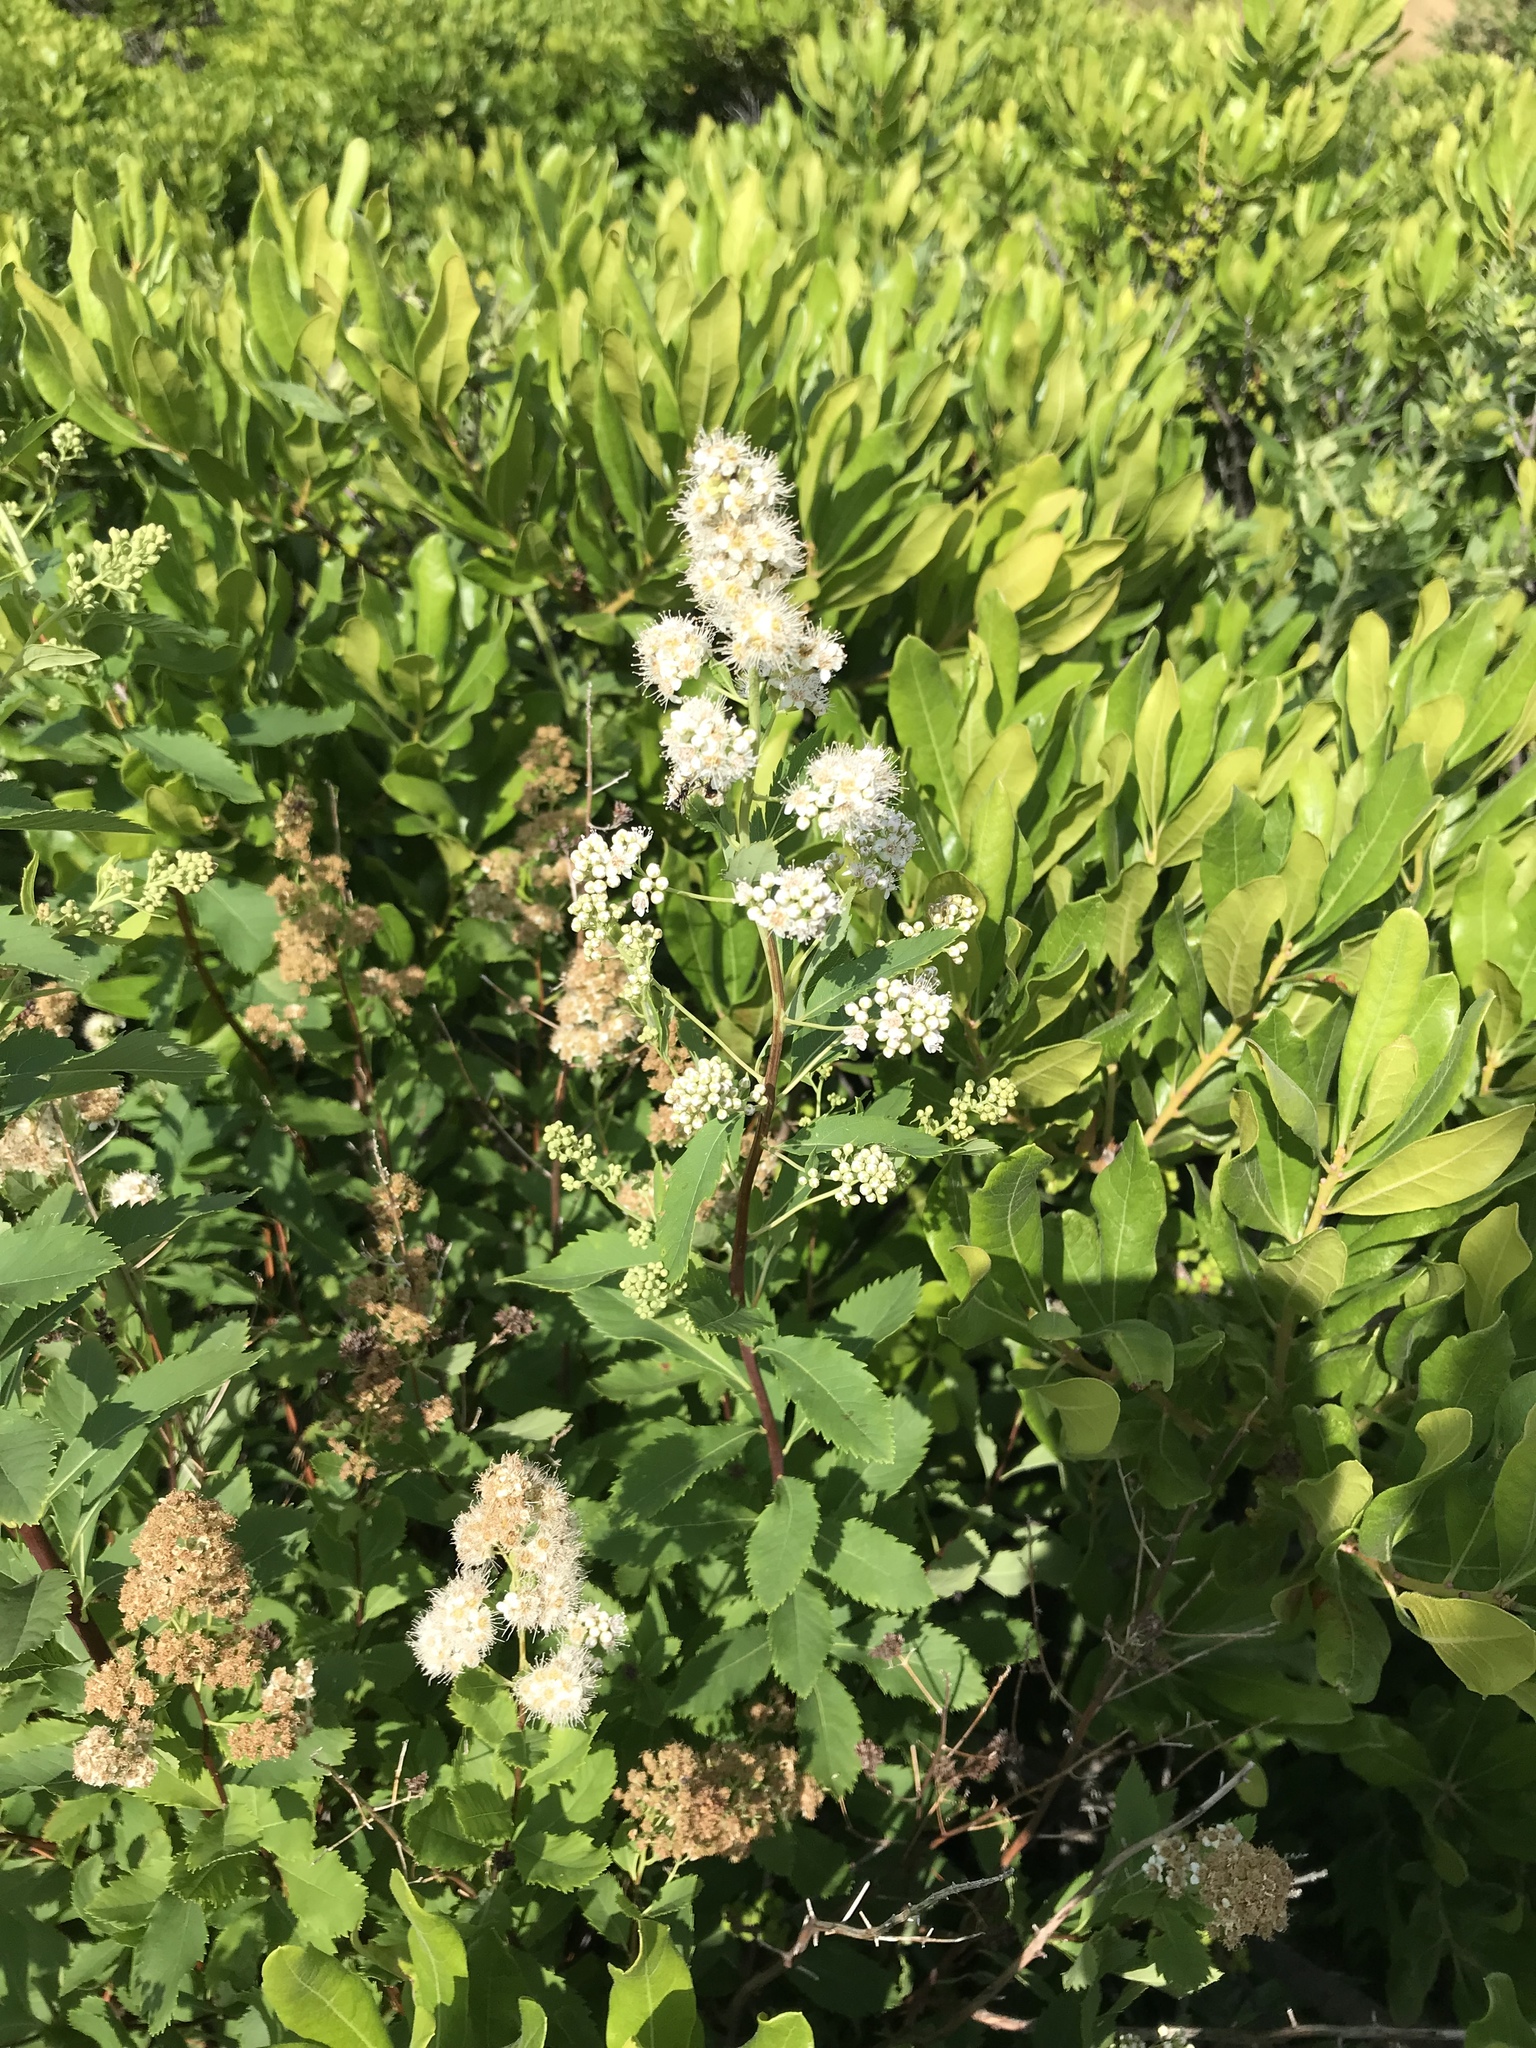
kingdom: Plantae
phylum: Tracheophyta
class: Magnoliopsida
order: Rosales
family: Rosaceae
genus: Spiraea
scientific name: Spiraea alba
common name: Pale bridewort
